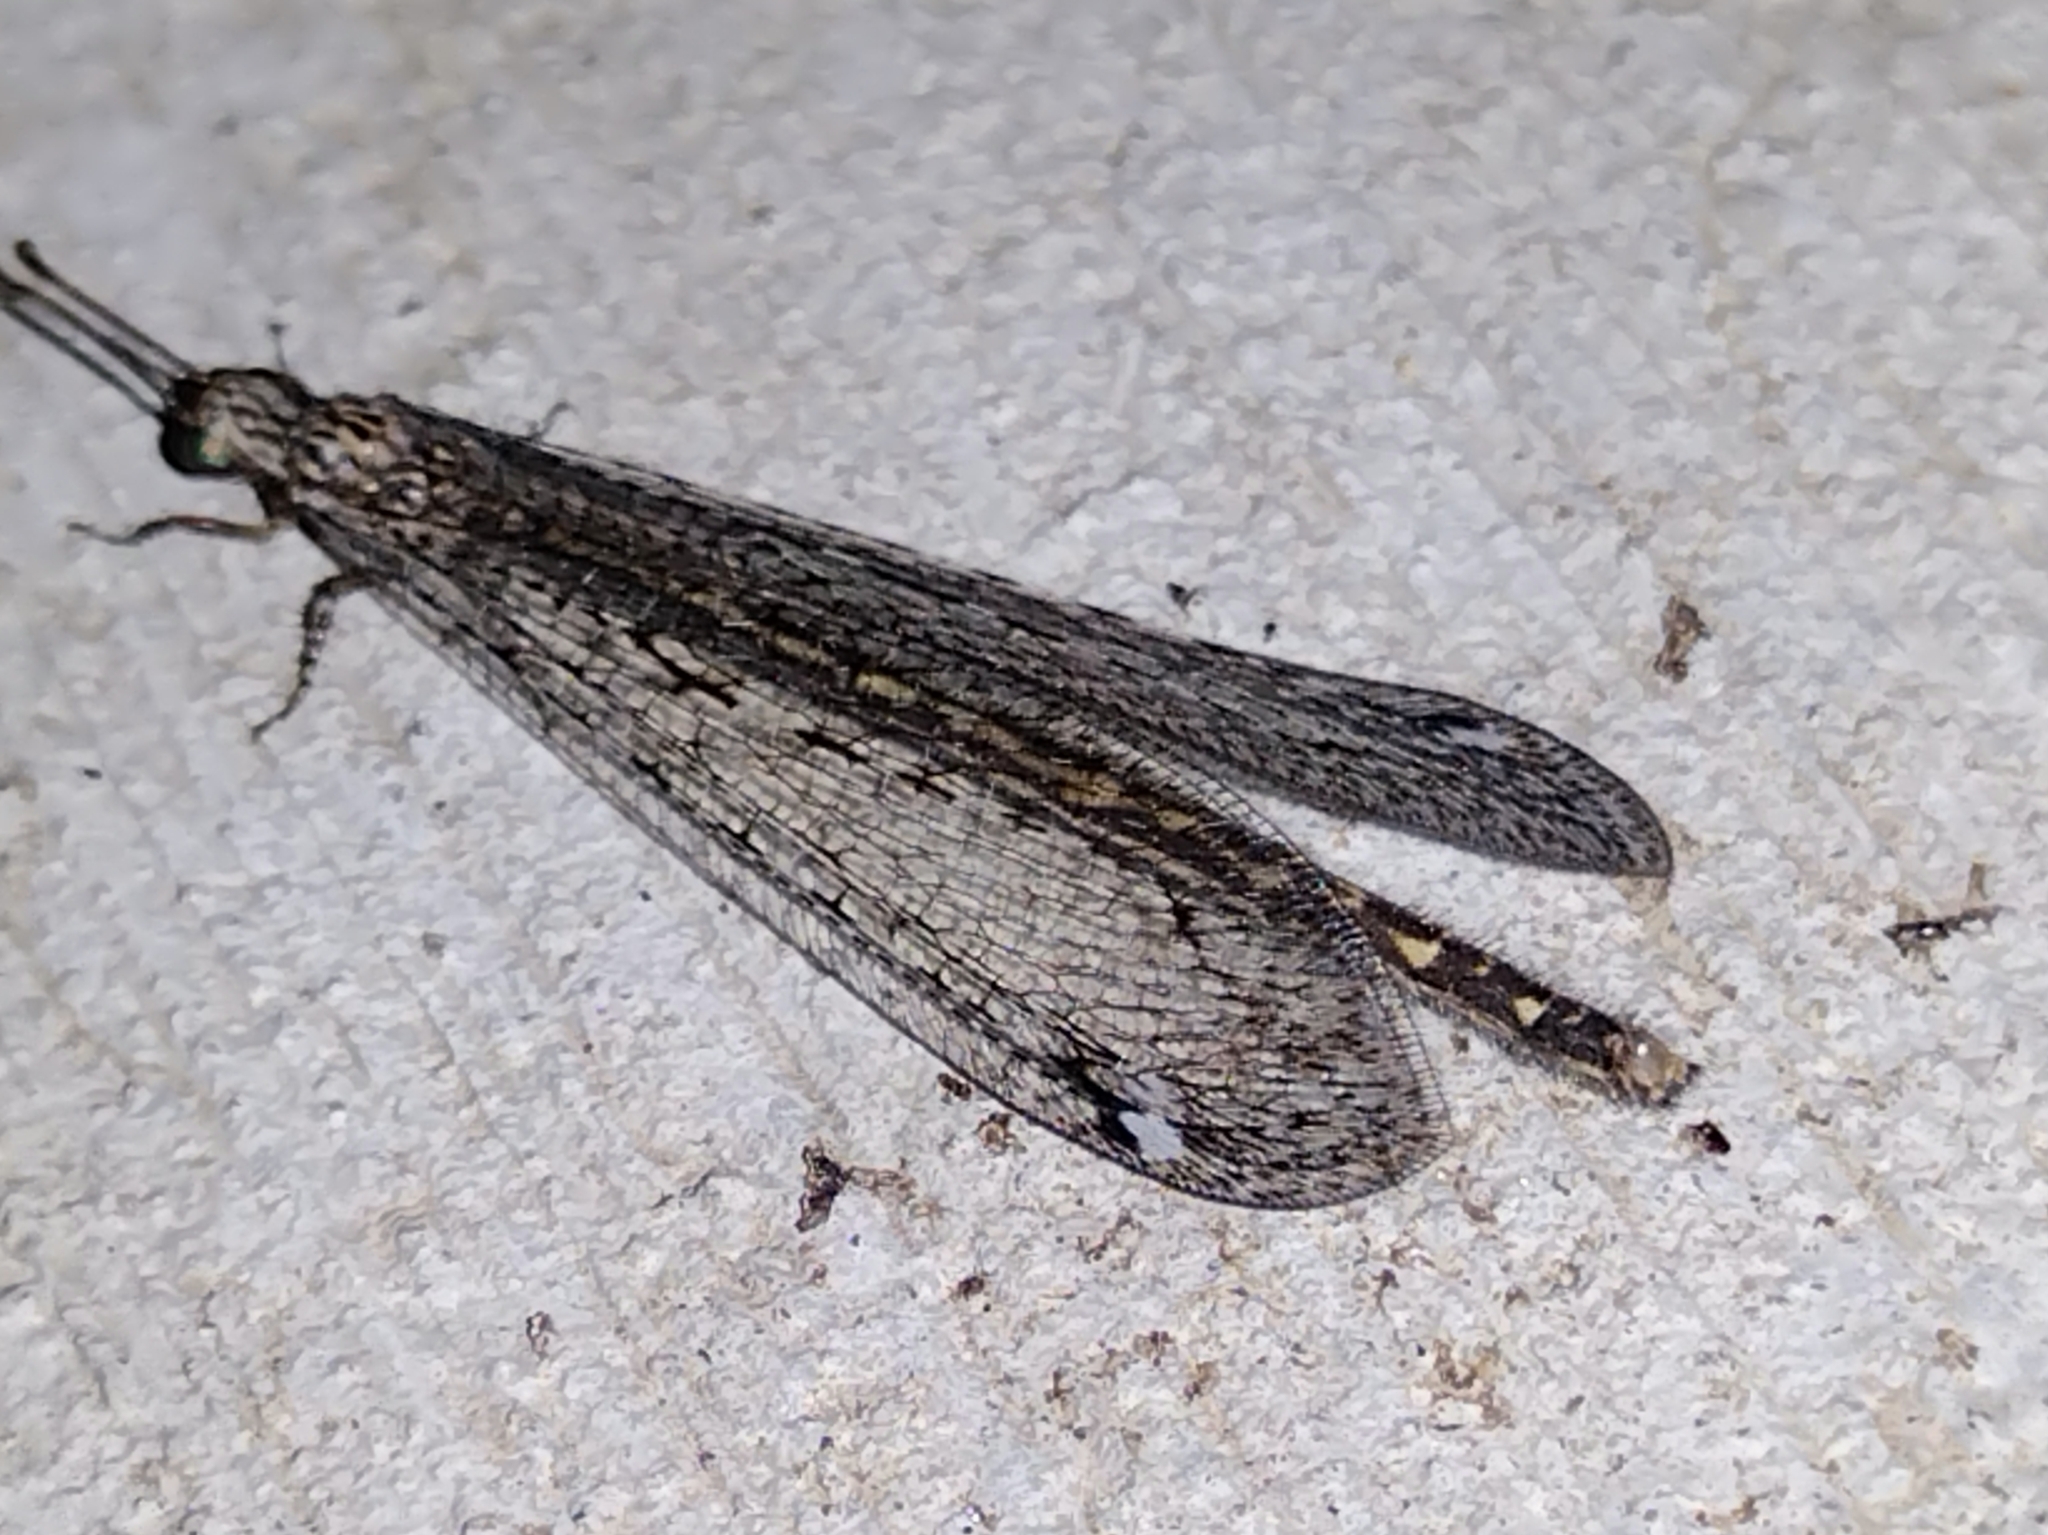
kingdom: Animalia
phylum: Arthropoda
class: Insecta
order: Neuroptera
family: Myrmeleontidae
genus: Mexoleon
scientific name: Mexoleon papago
